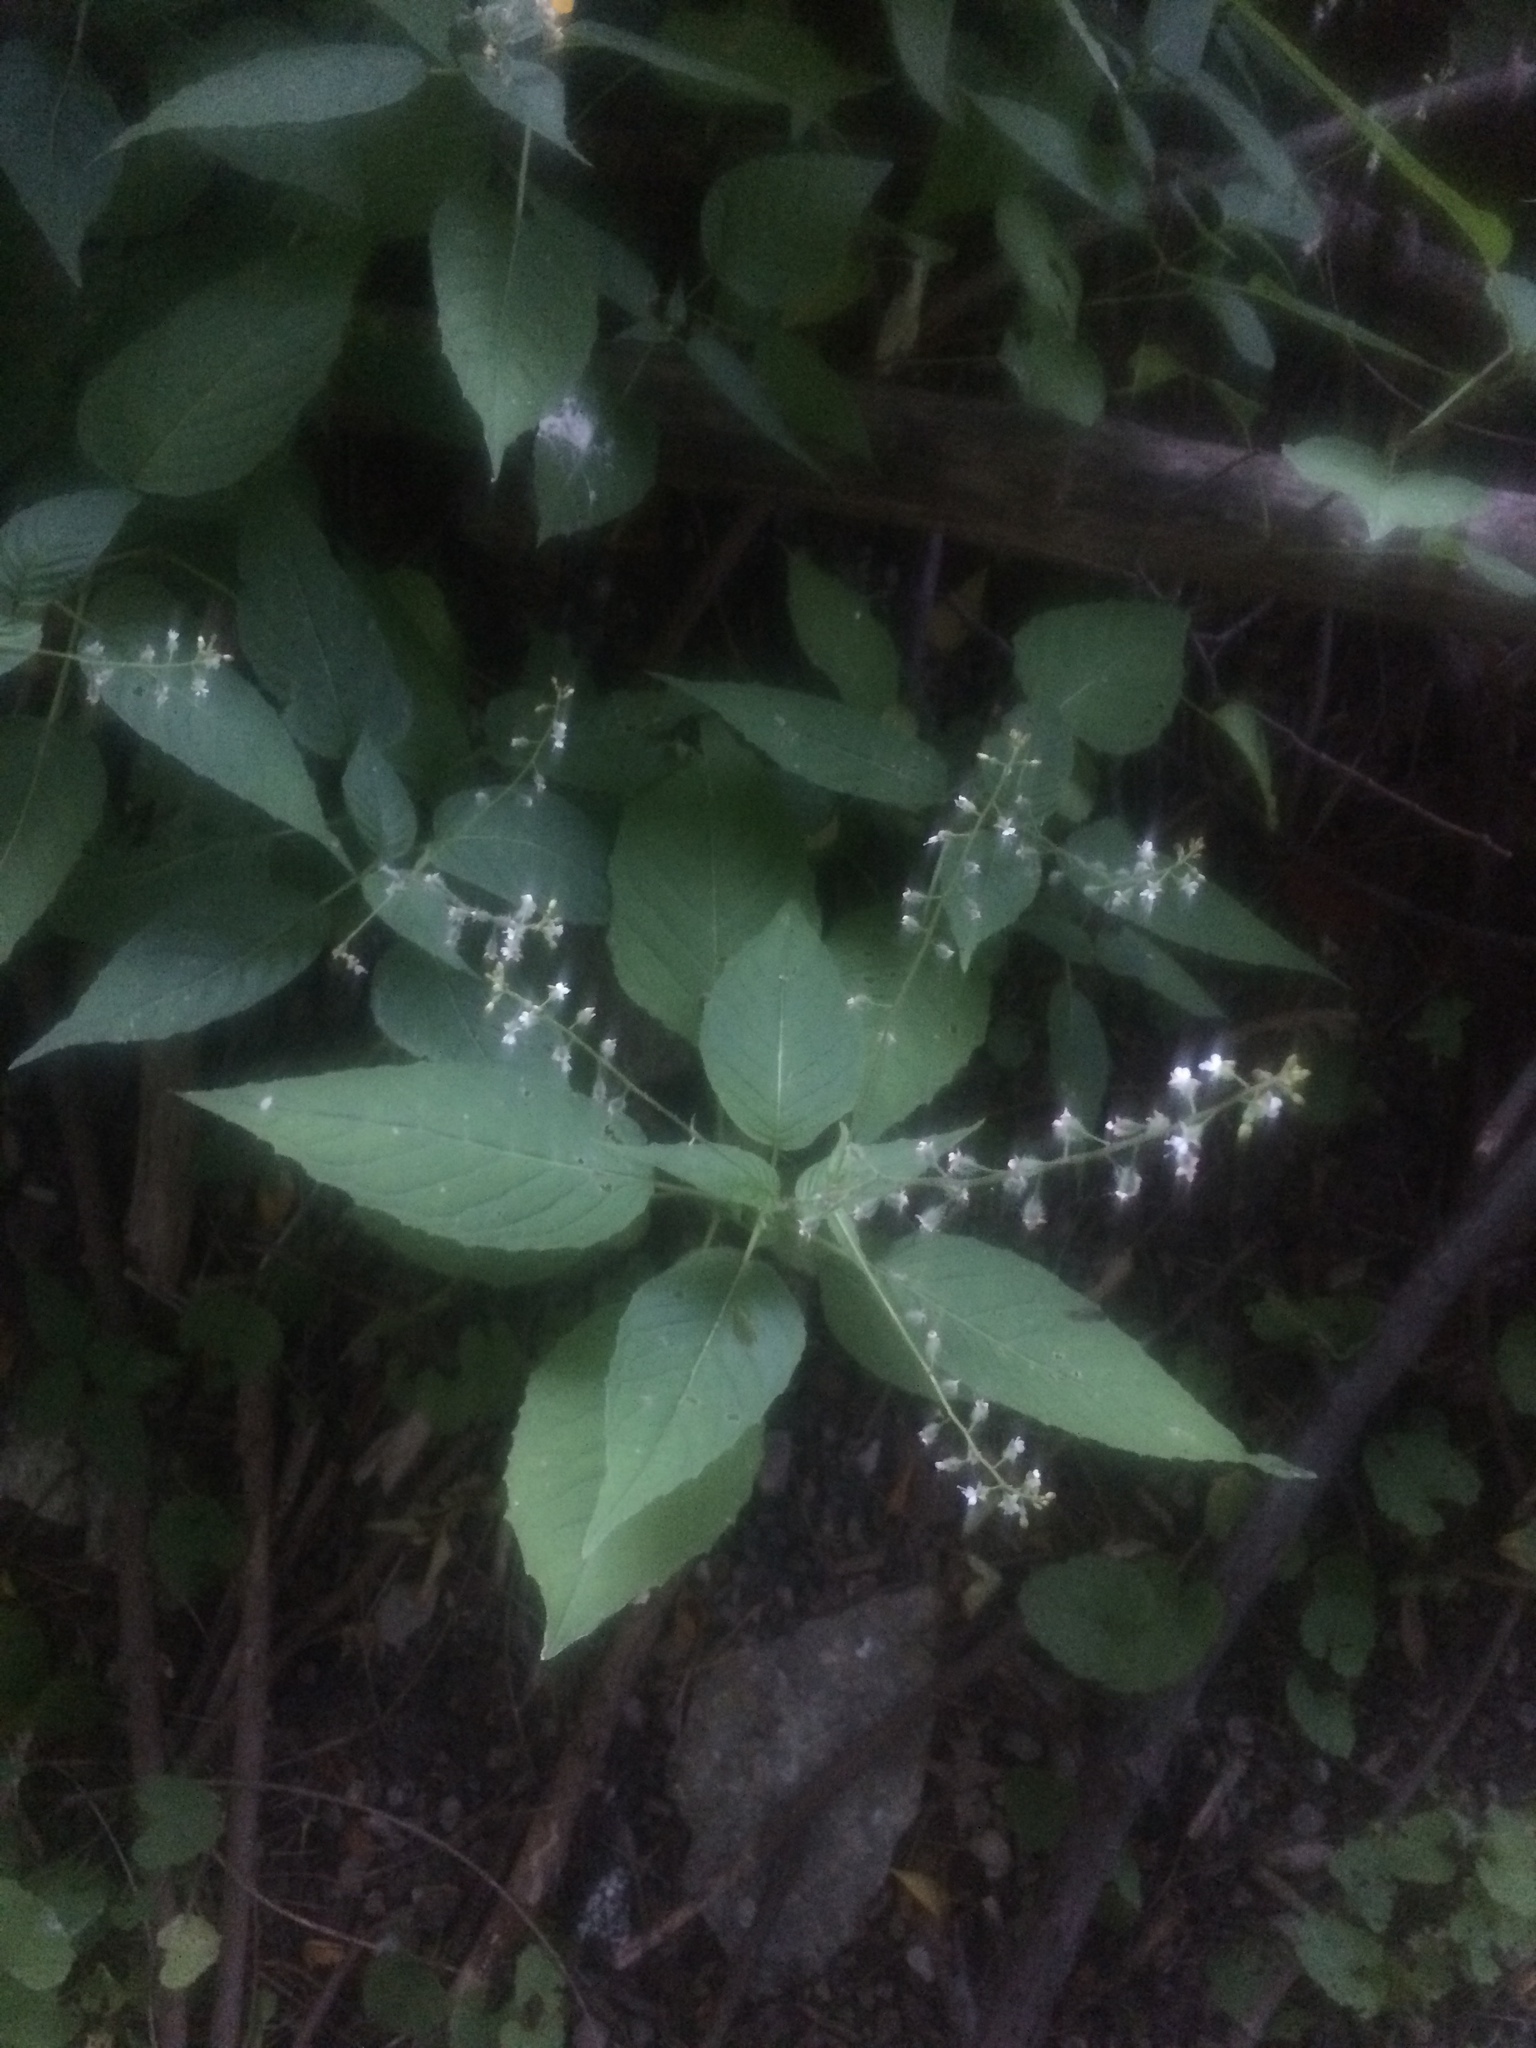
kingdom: Plantae
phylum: Tracheophyta
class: Magnoliopsida
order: Myrtales
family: Onagraceae
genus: Circaea
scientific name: Circaea canadensis
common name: Broad-leaved enchanter's nightshade
